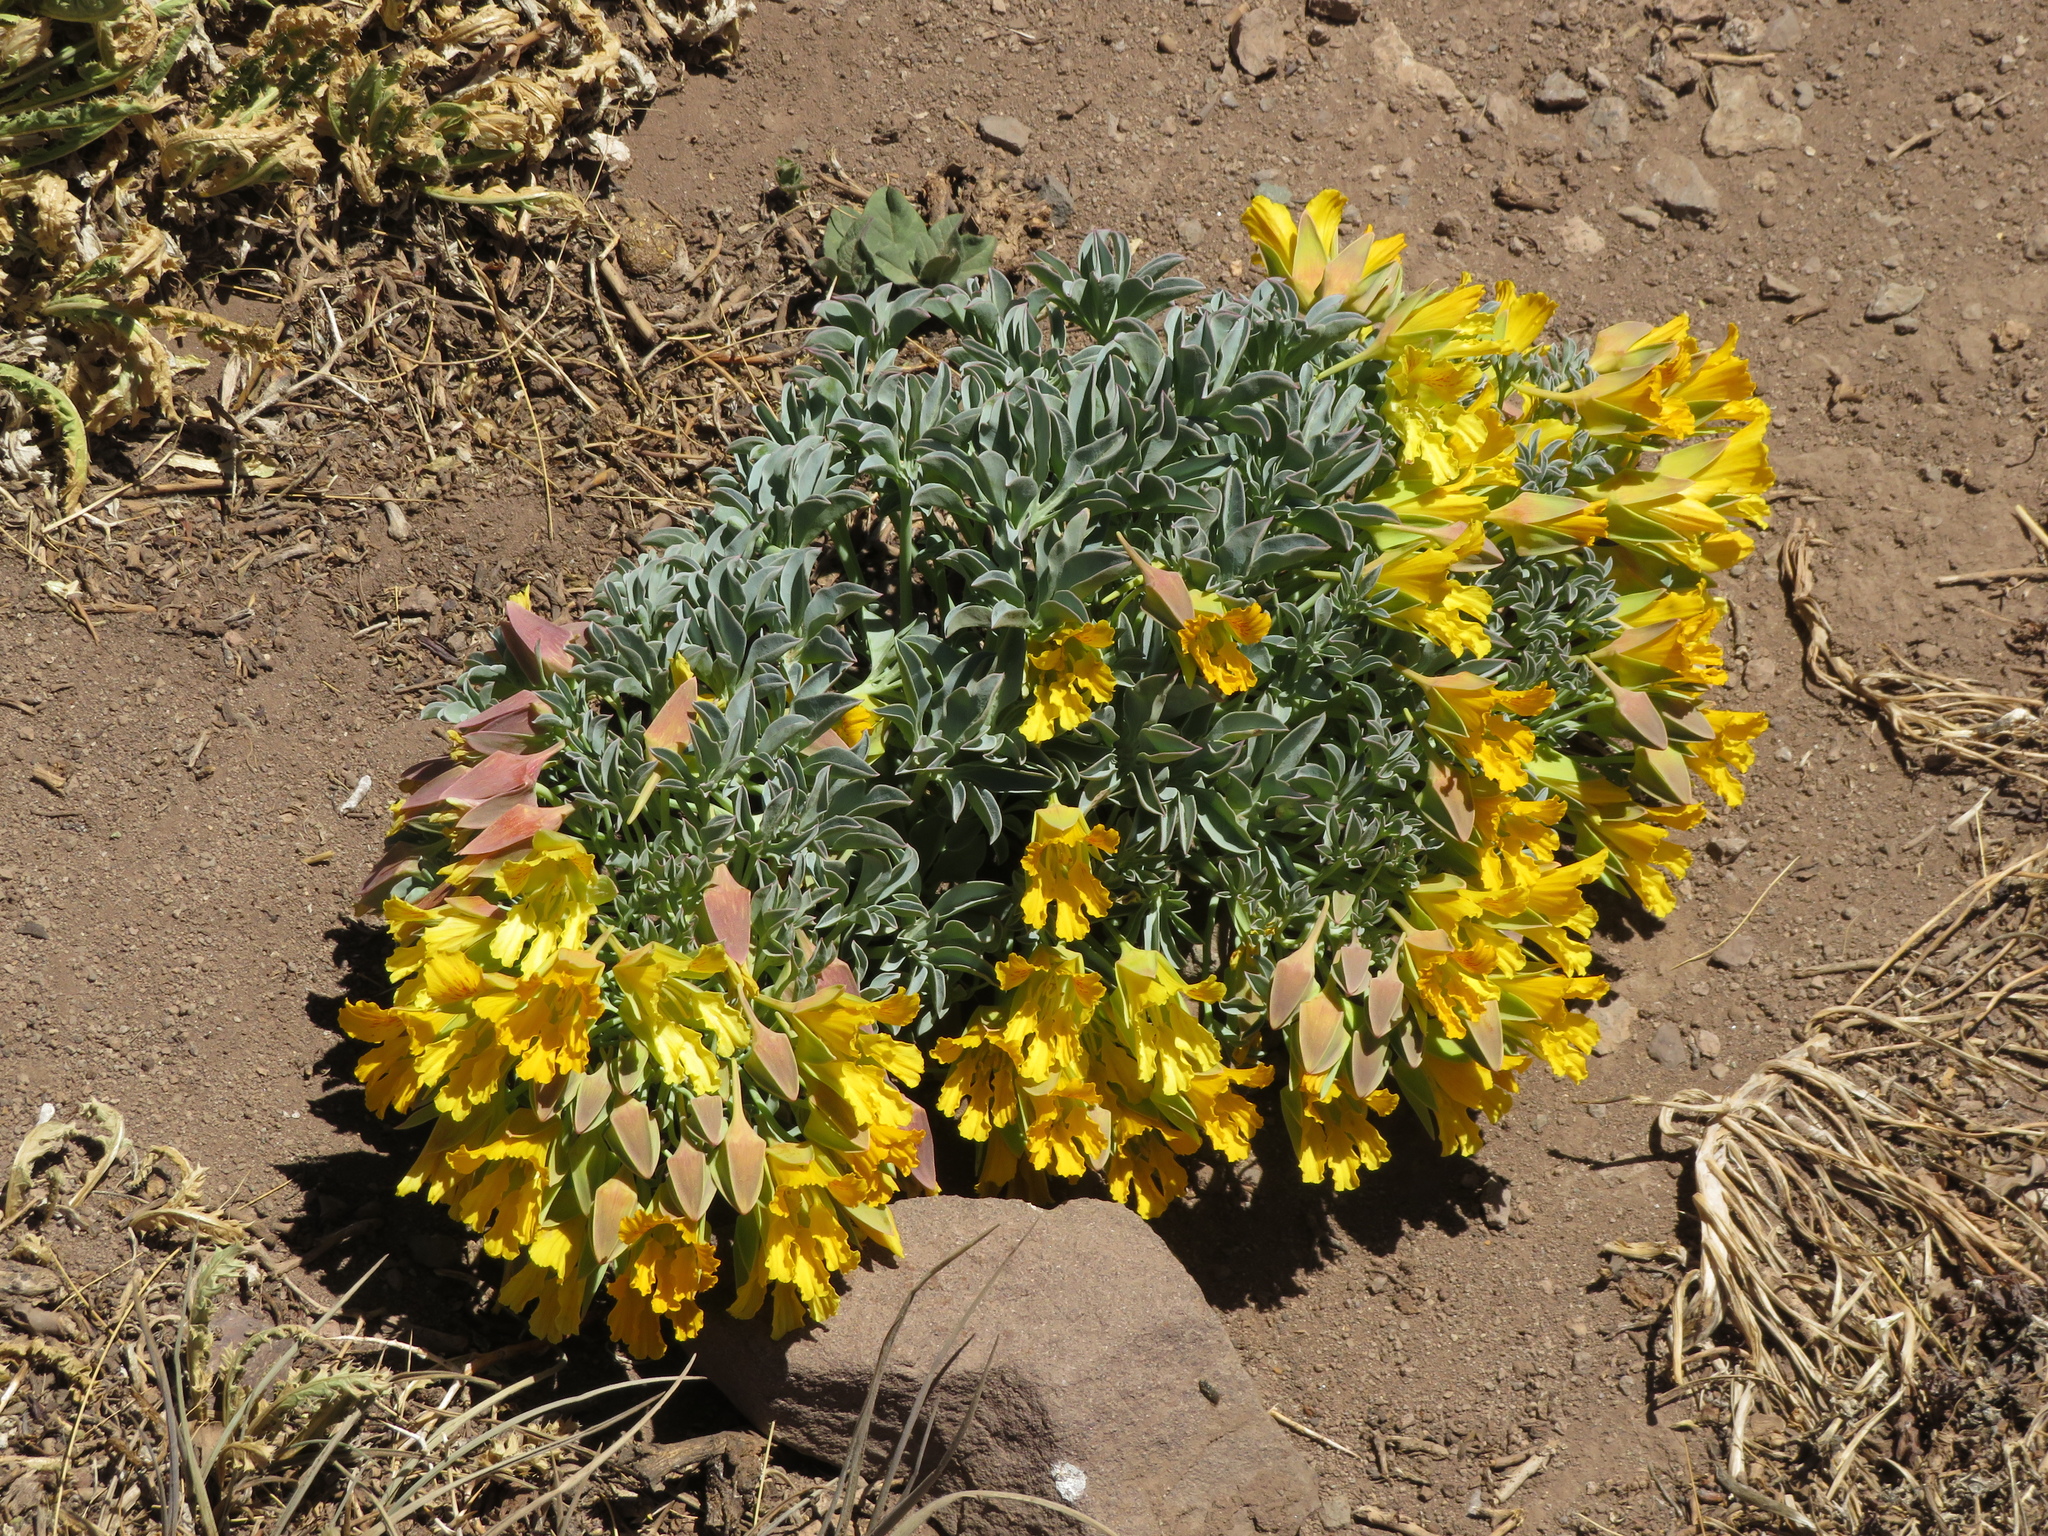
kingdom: Plantae
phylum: Tracheophyta
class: Magnoliopsida
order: Brassicales
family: Tropaeolaceae
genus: Tropaeolum
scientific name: Tropaeolum polyphyllum
